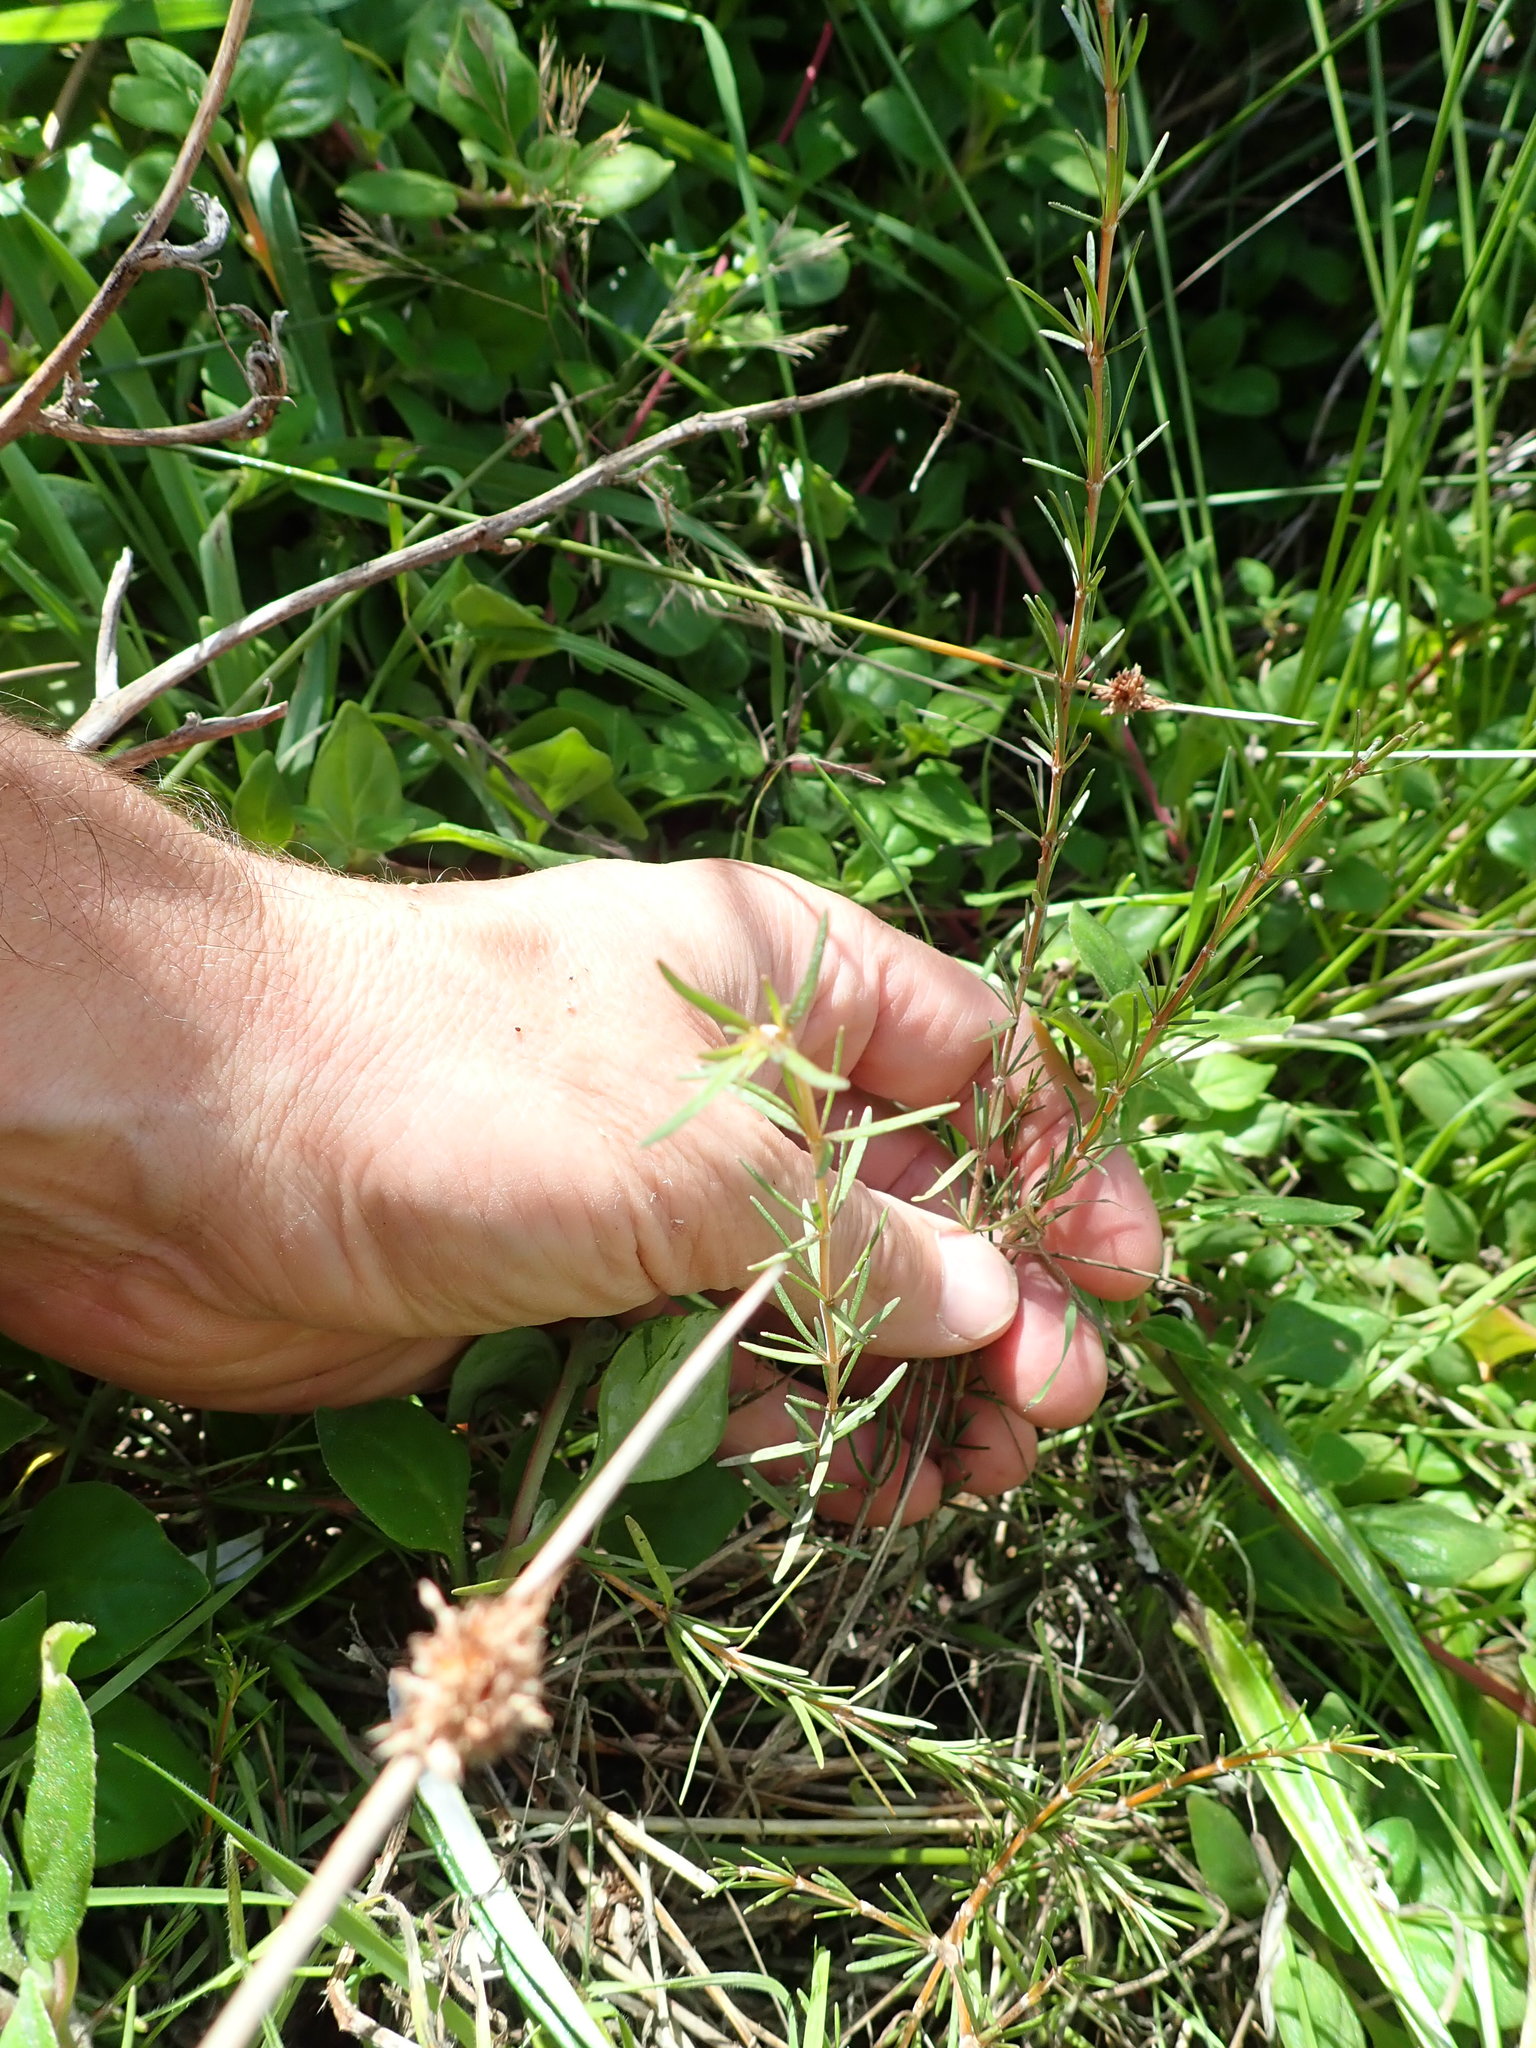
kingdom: Plantae
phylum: Tracheophyta
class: Magnoliopsida
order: Gentianales
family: Rubiaceae
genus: Coprosma
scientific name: Coprosma acerosa
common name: Sand coprosma
